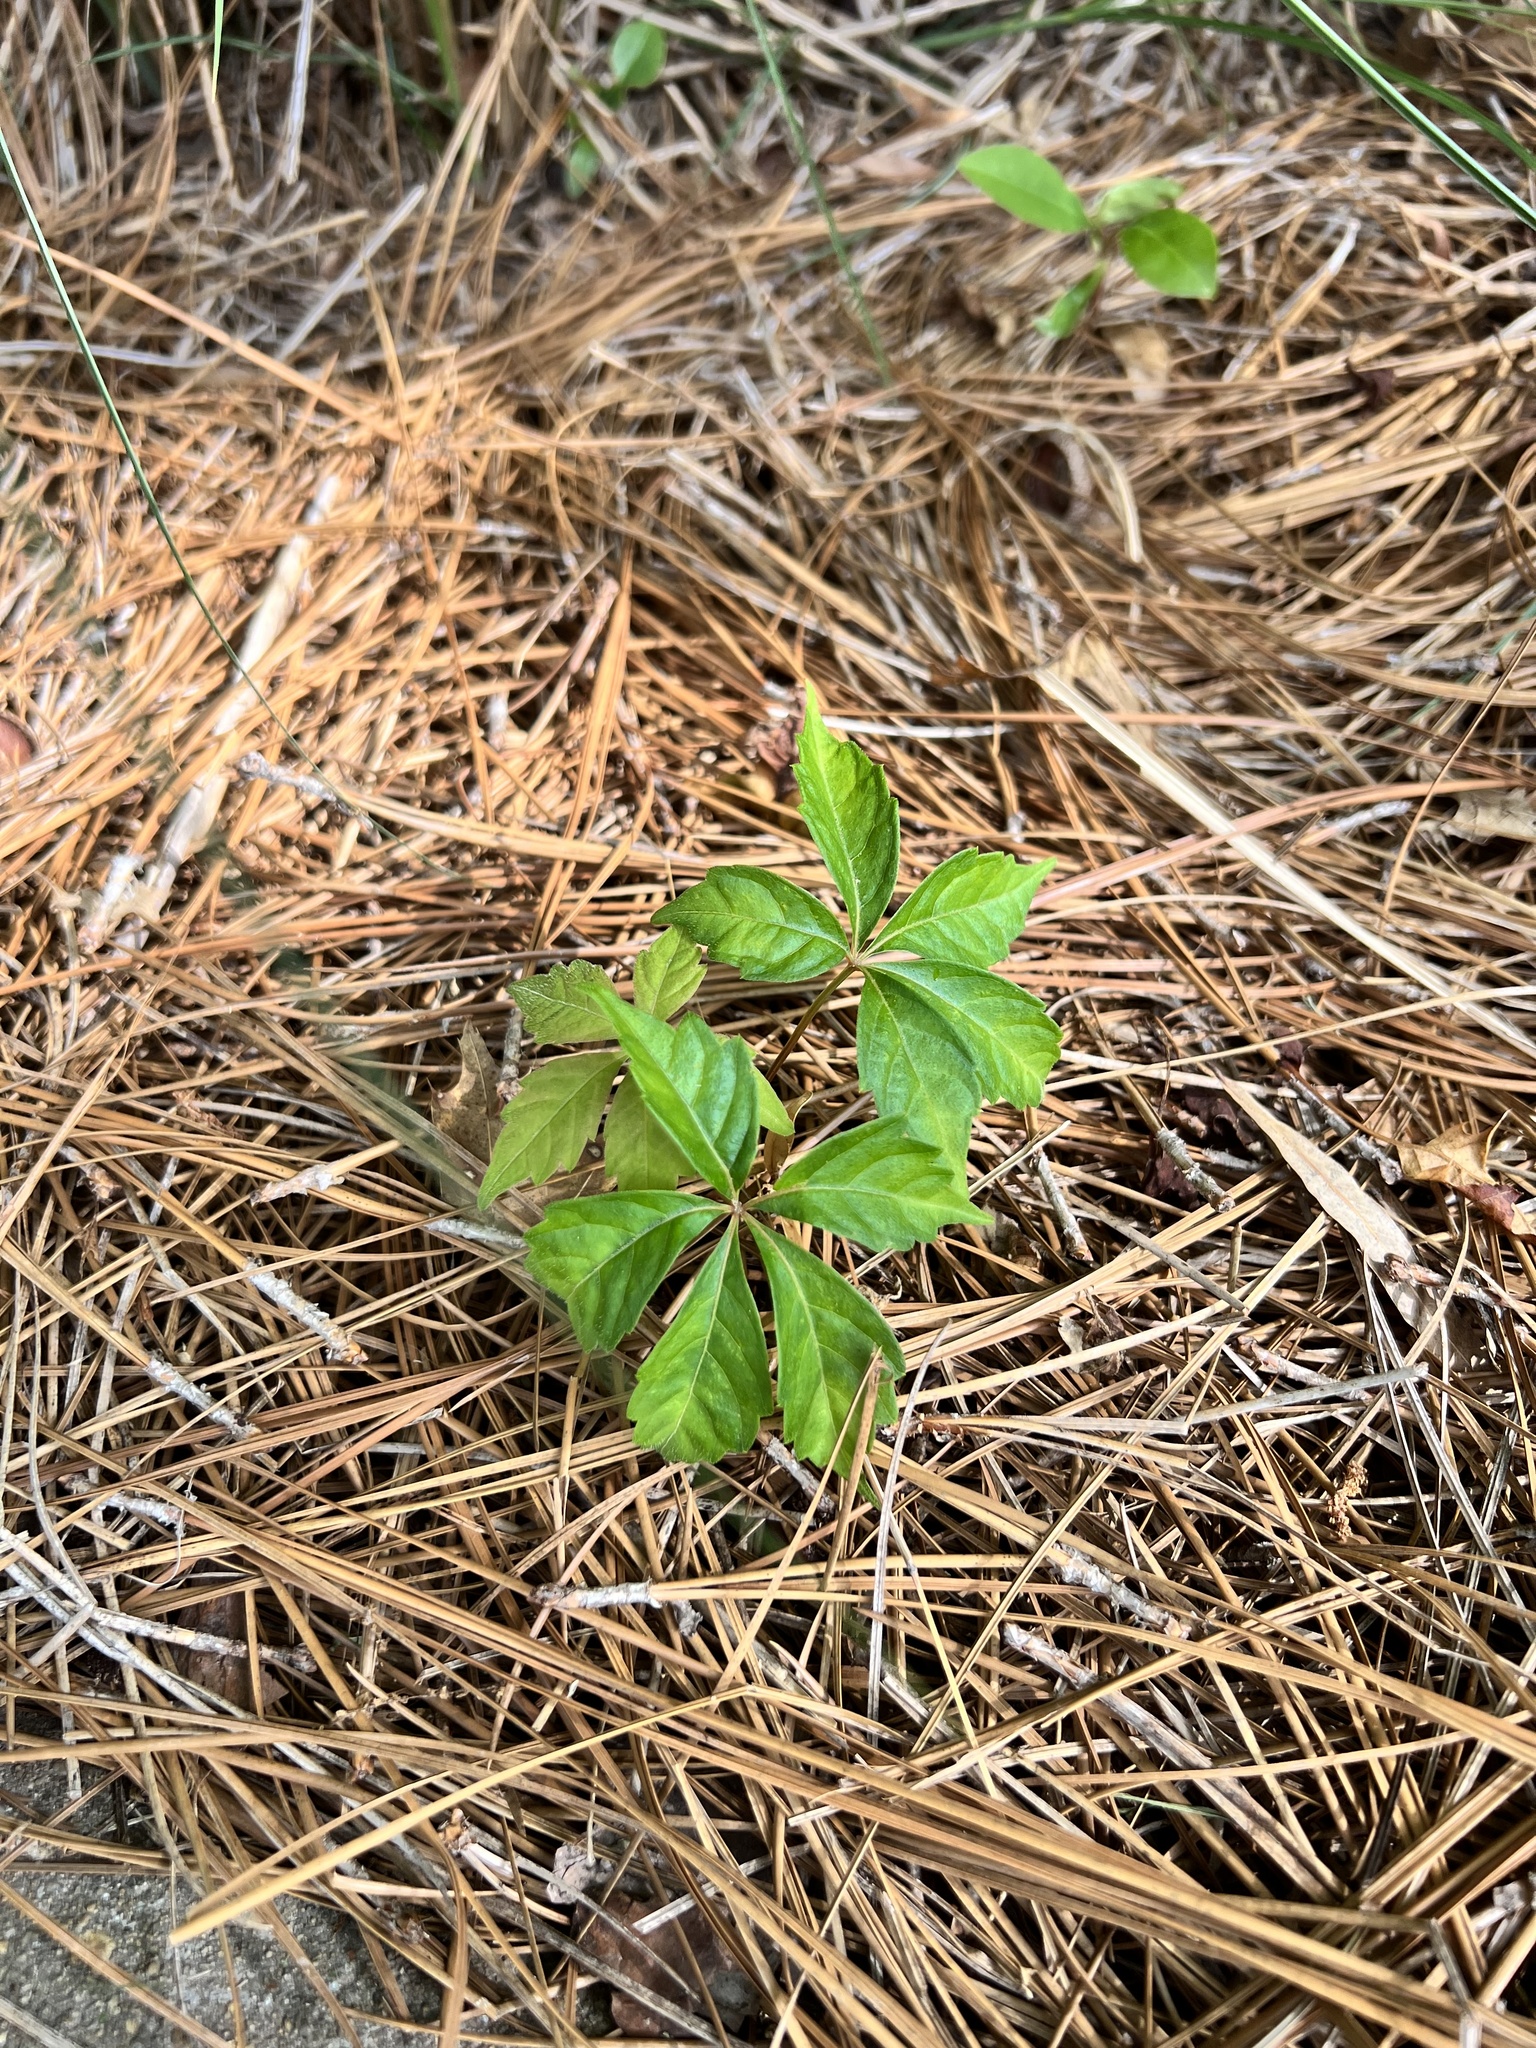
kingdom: Plantae
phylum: Tracheophyta
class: Magnoliopsida
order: Vitales
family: Vitaceae
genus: Parthenocissus
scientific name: Parthenocissus quinquefolia
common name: Virginia-creeper
